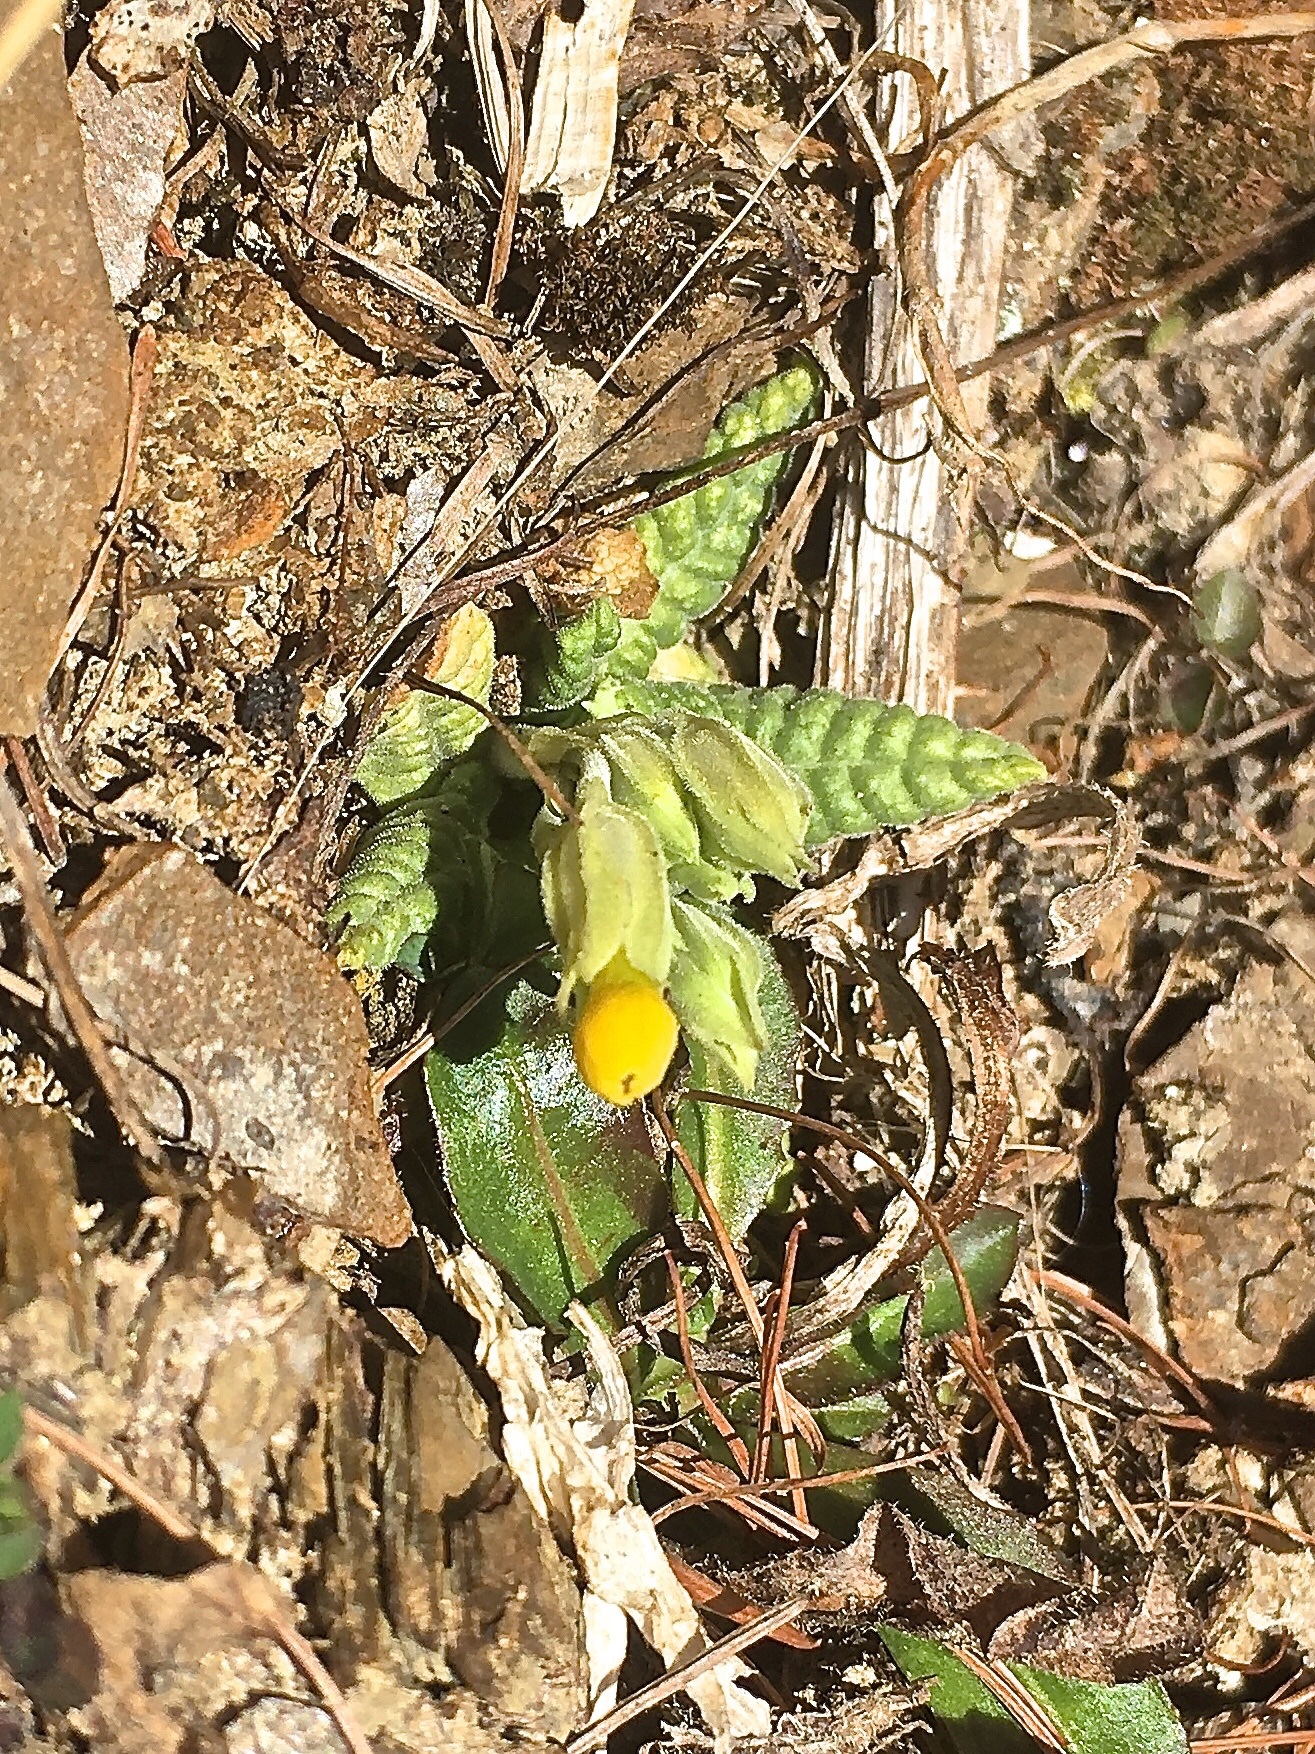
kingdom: Plantae
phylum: Tracheophyta
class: Magnoliopsida
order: Ericales
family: Primulaceae
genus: Primula
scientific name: Primula veris
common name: Cowslip
